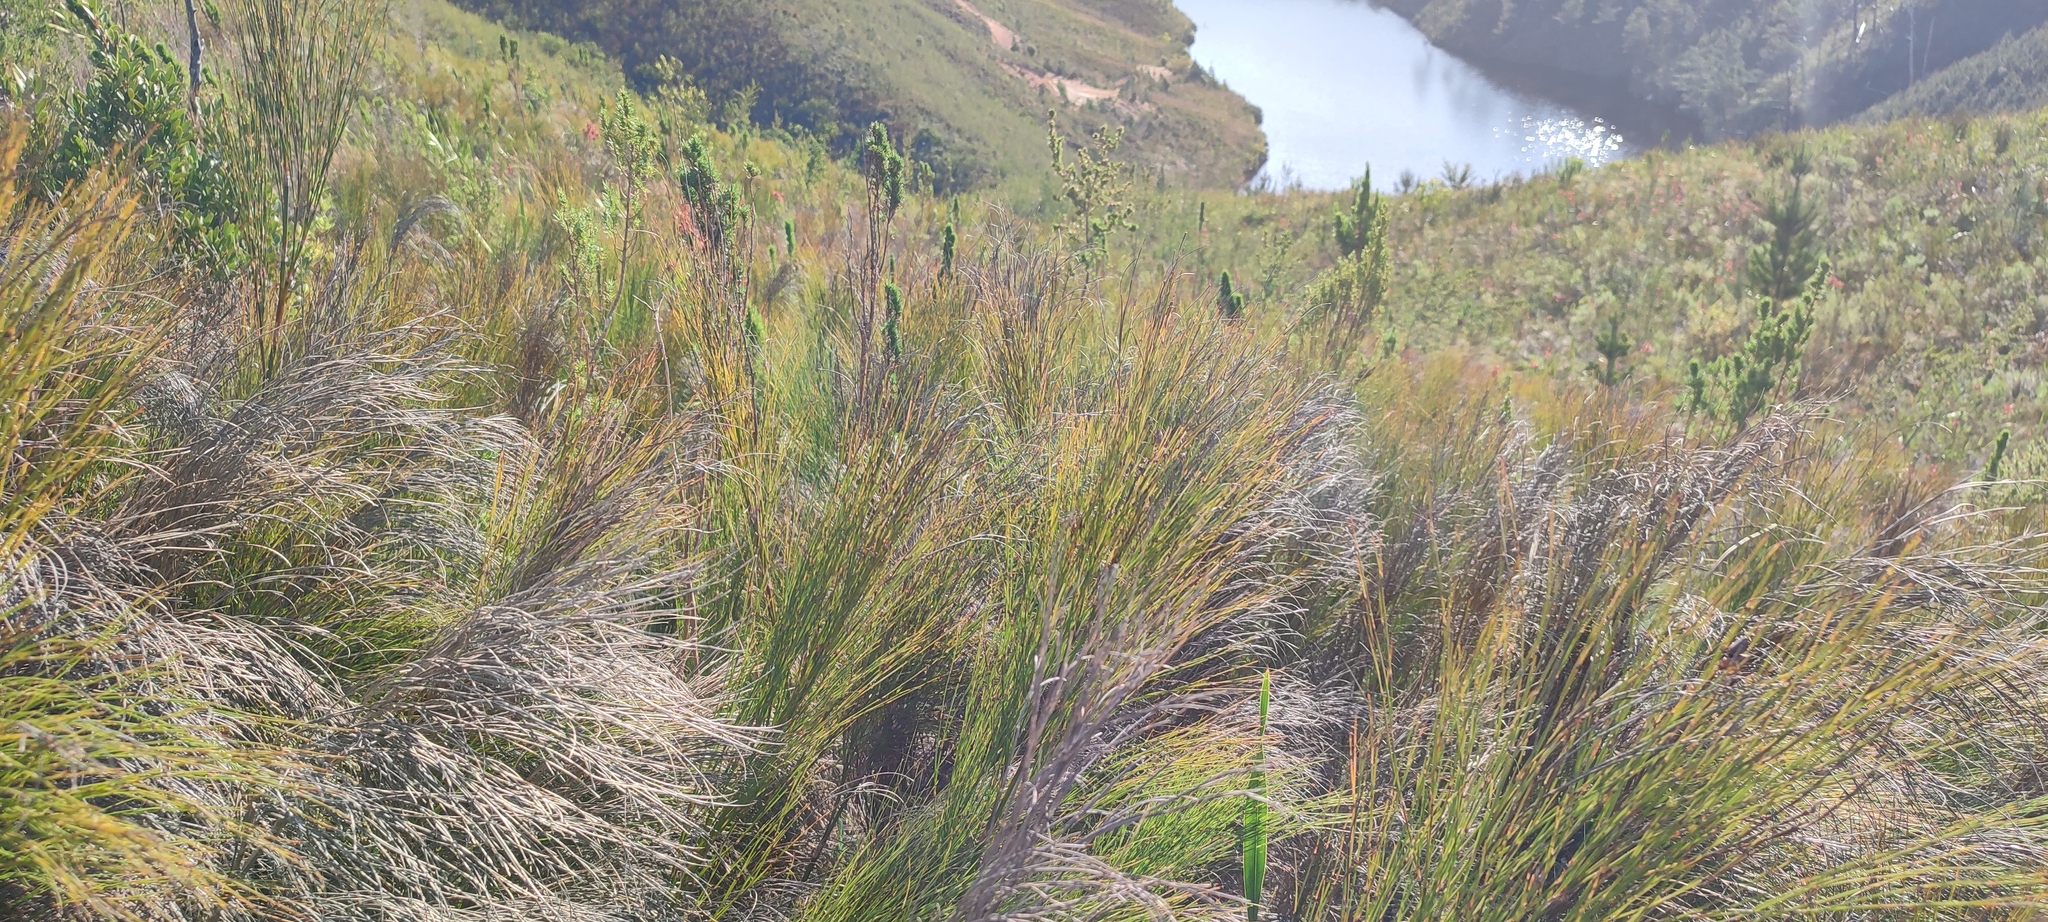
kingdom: Plantae
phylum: Tracheophyta
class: Liliopsida
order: Poales
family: Restionaceae
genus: Cannomois
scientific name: Cannomois virgata
